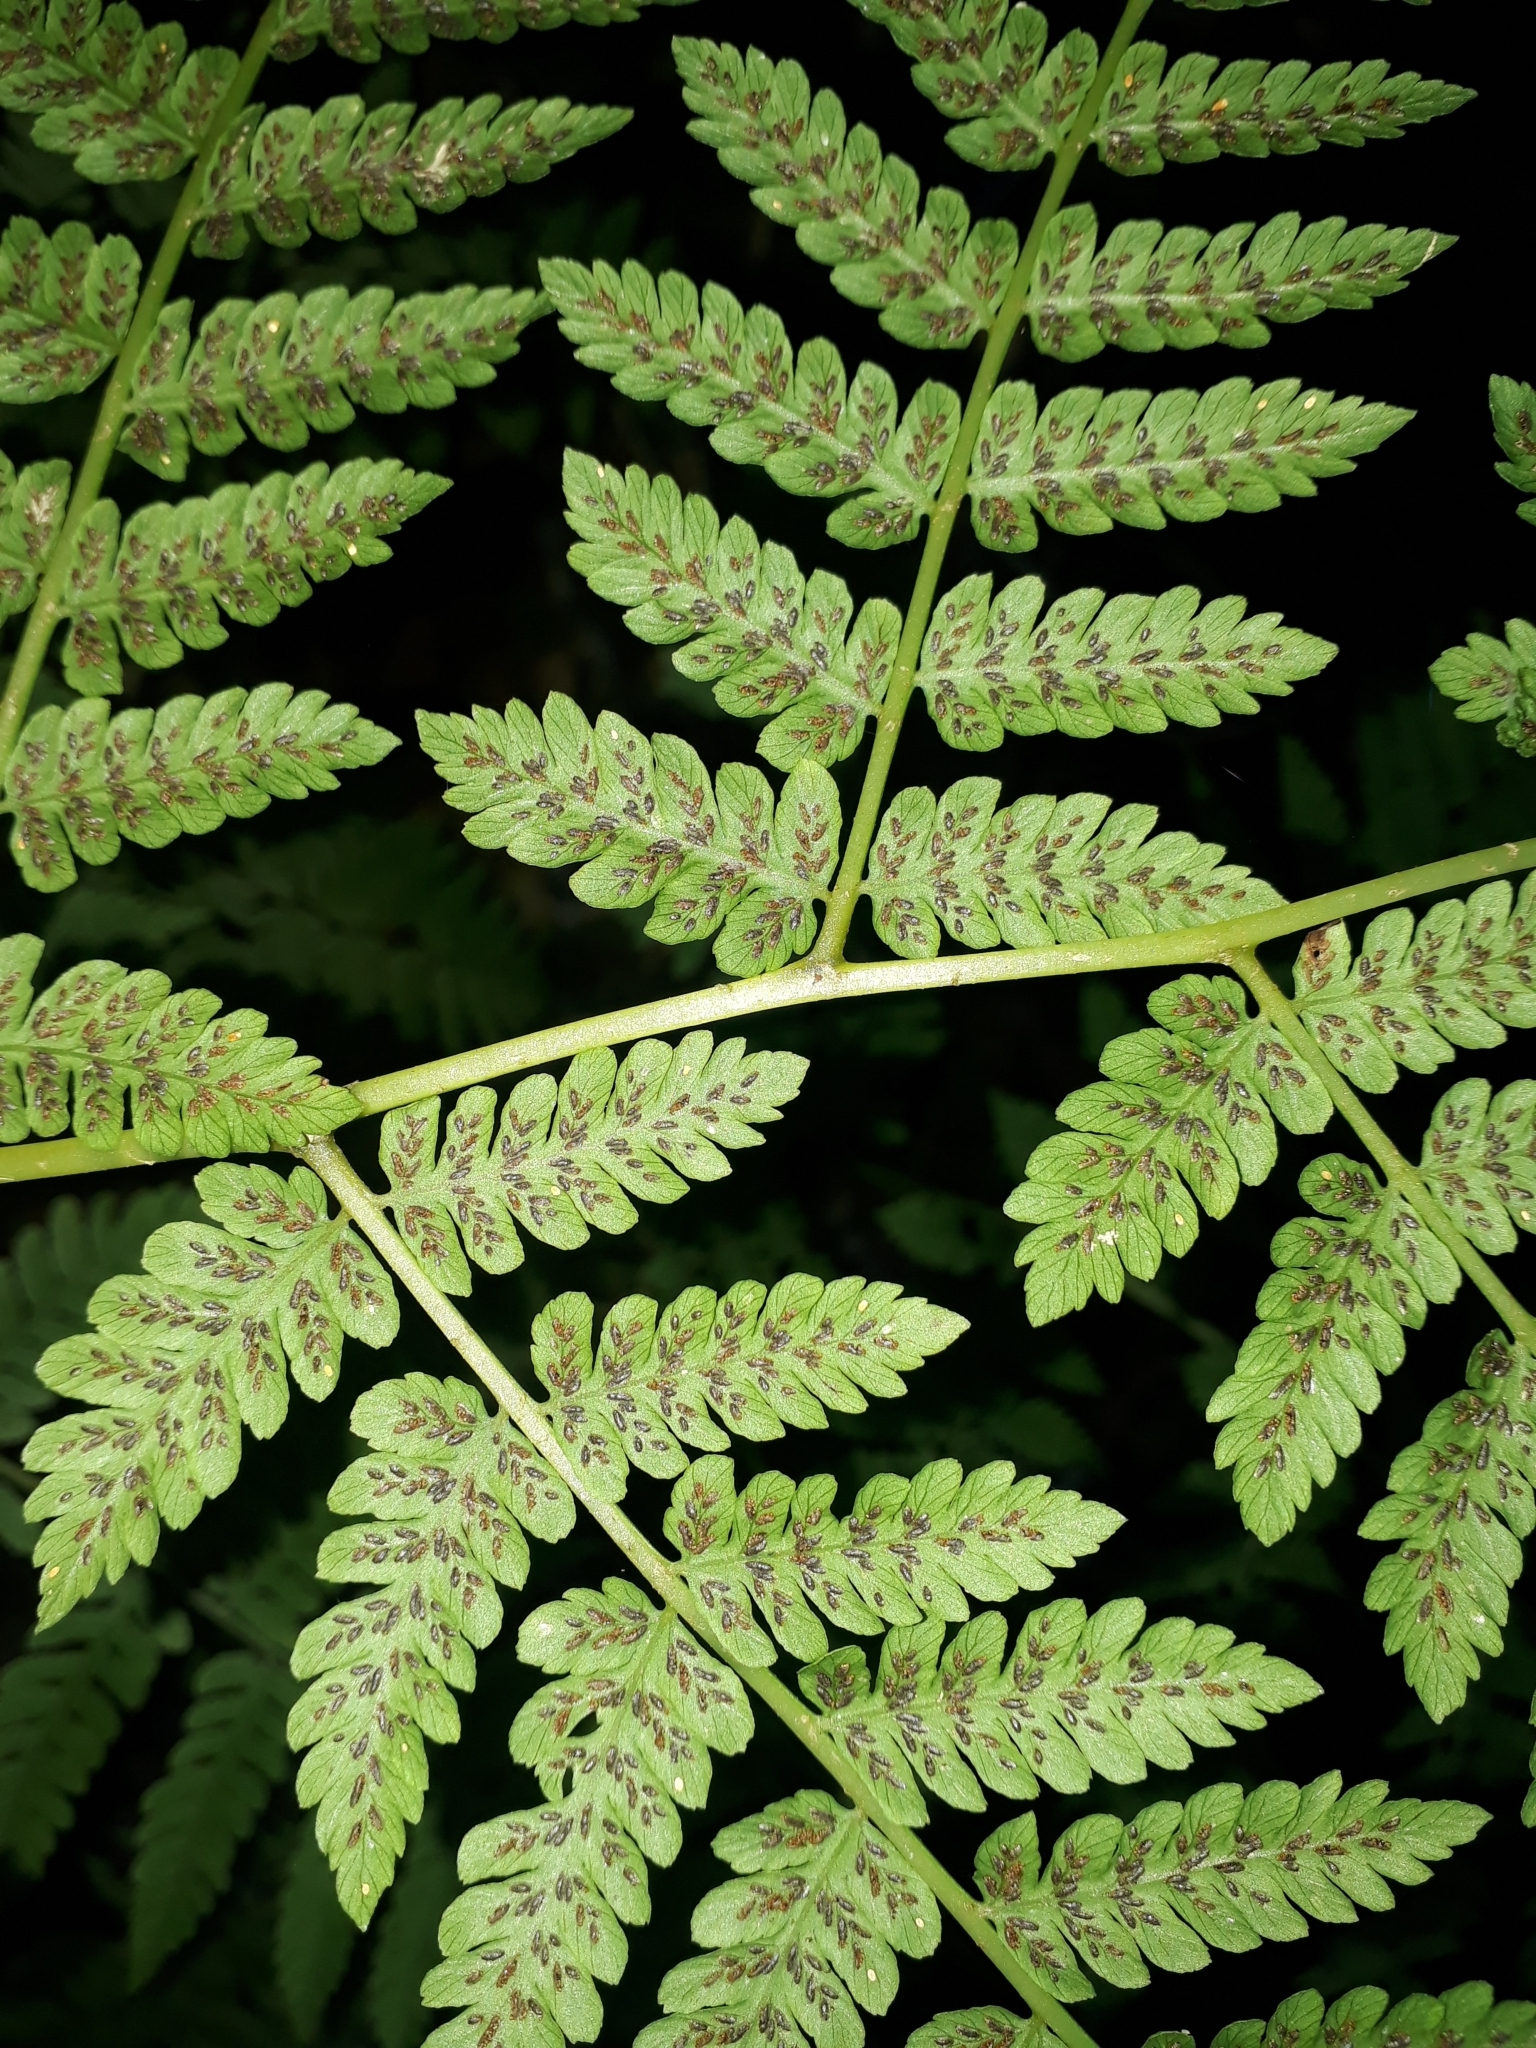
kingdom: Plantae
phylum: Tracheophyta
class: Polypodiopsida
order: Polypodiales
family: Athyriaceae
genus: Diplazium
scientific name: Diplazium australe
